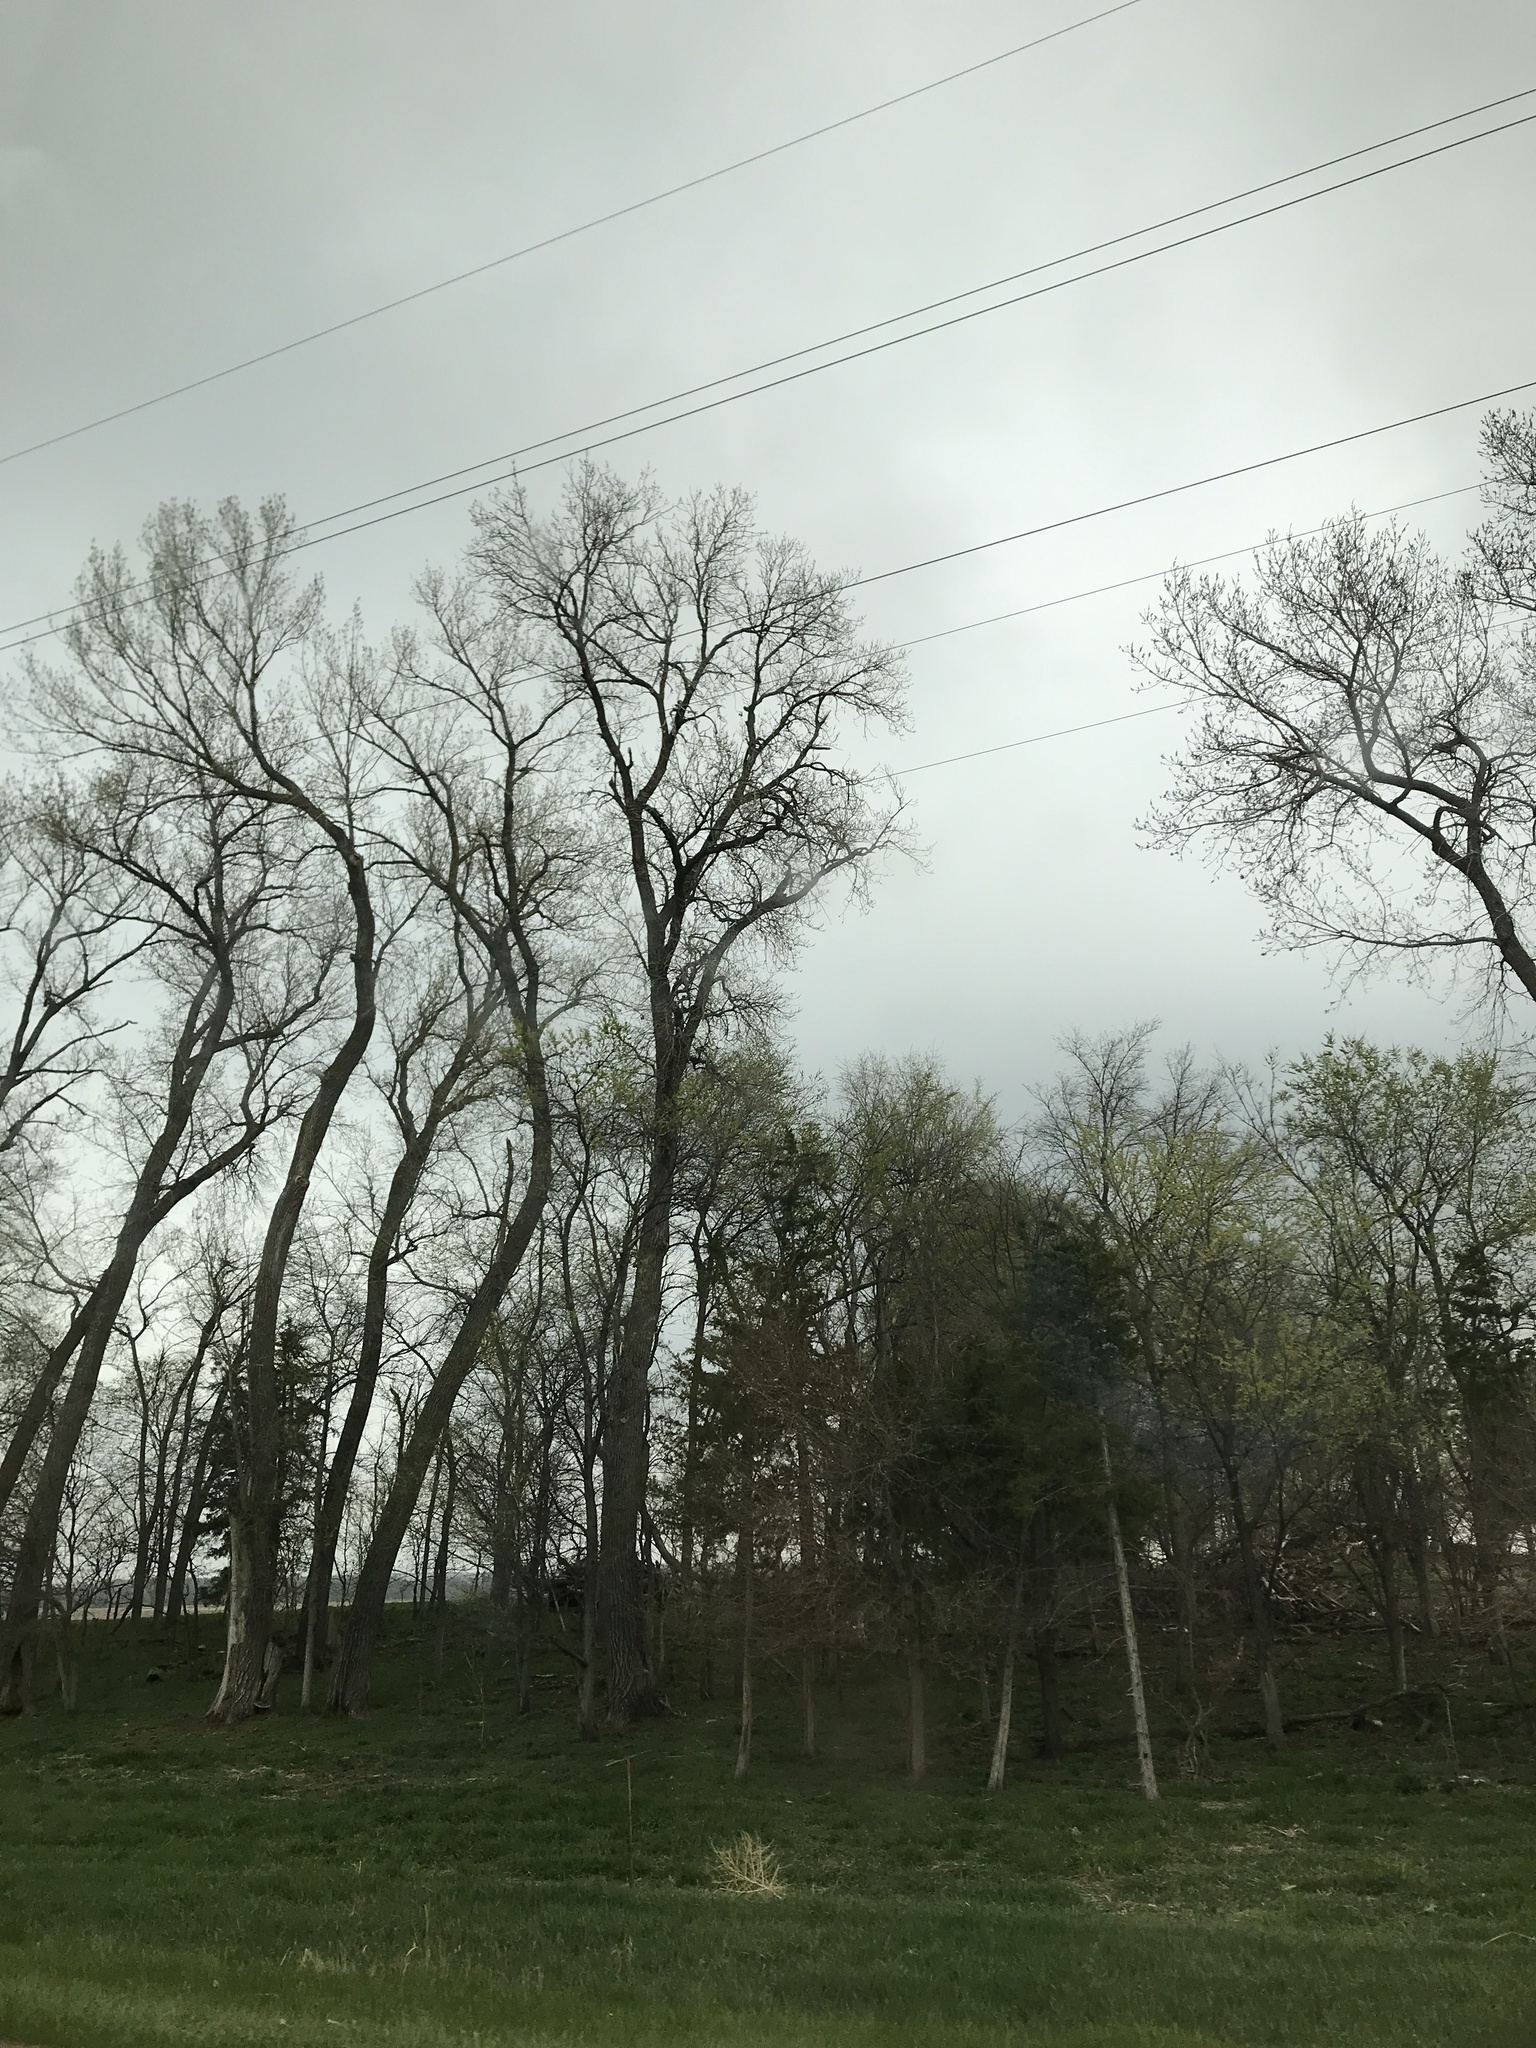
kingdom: Plantae
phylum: Tracheophyta
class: Magnoliopsida
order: Malpighiales
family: Salicaceae
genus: Populus
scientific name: Populus deltoides
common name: Eastern cottonwood
